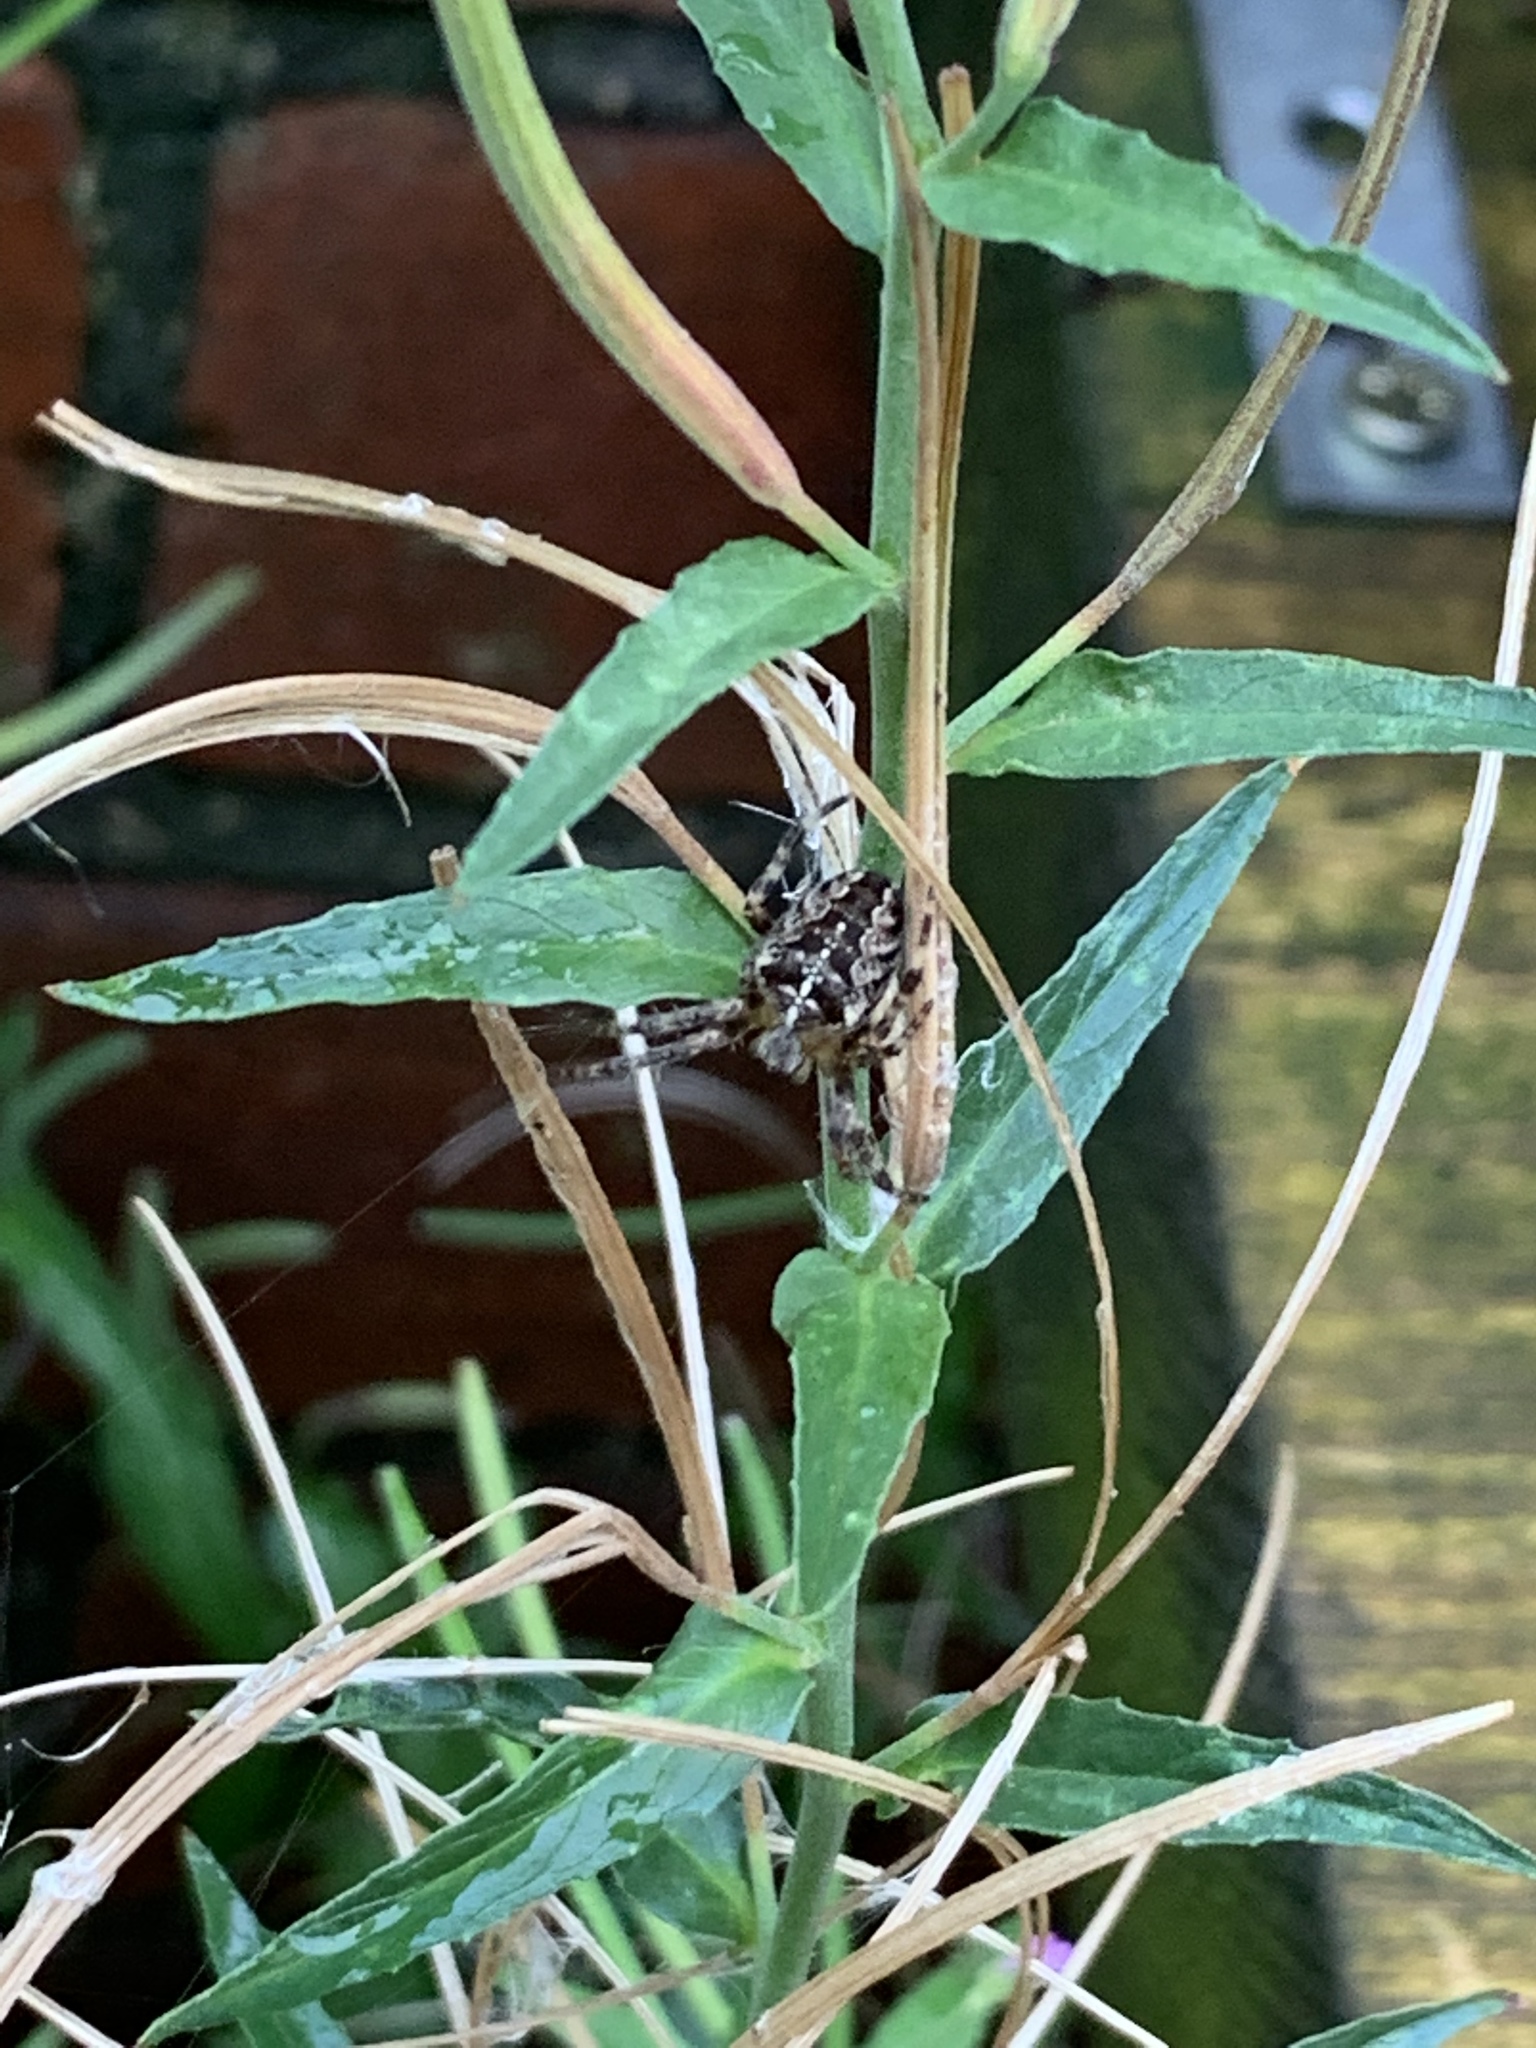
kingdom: Animalia
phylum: Arthropoda
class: Arachnida
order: Araneae
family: Araneidae
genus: Araneus
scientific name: Araneus diadematus
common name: Cross orbweaver
